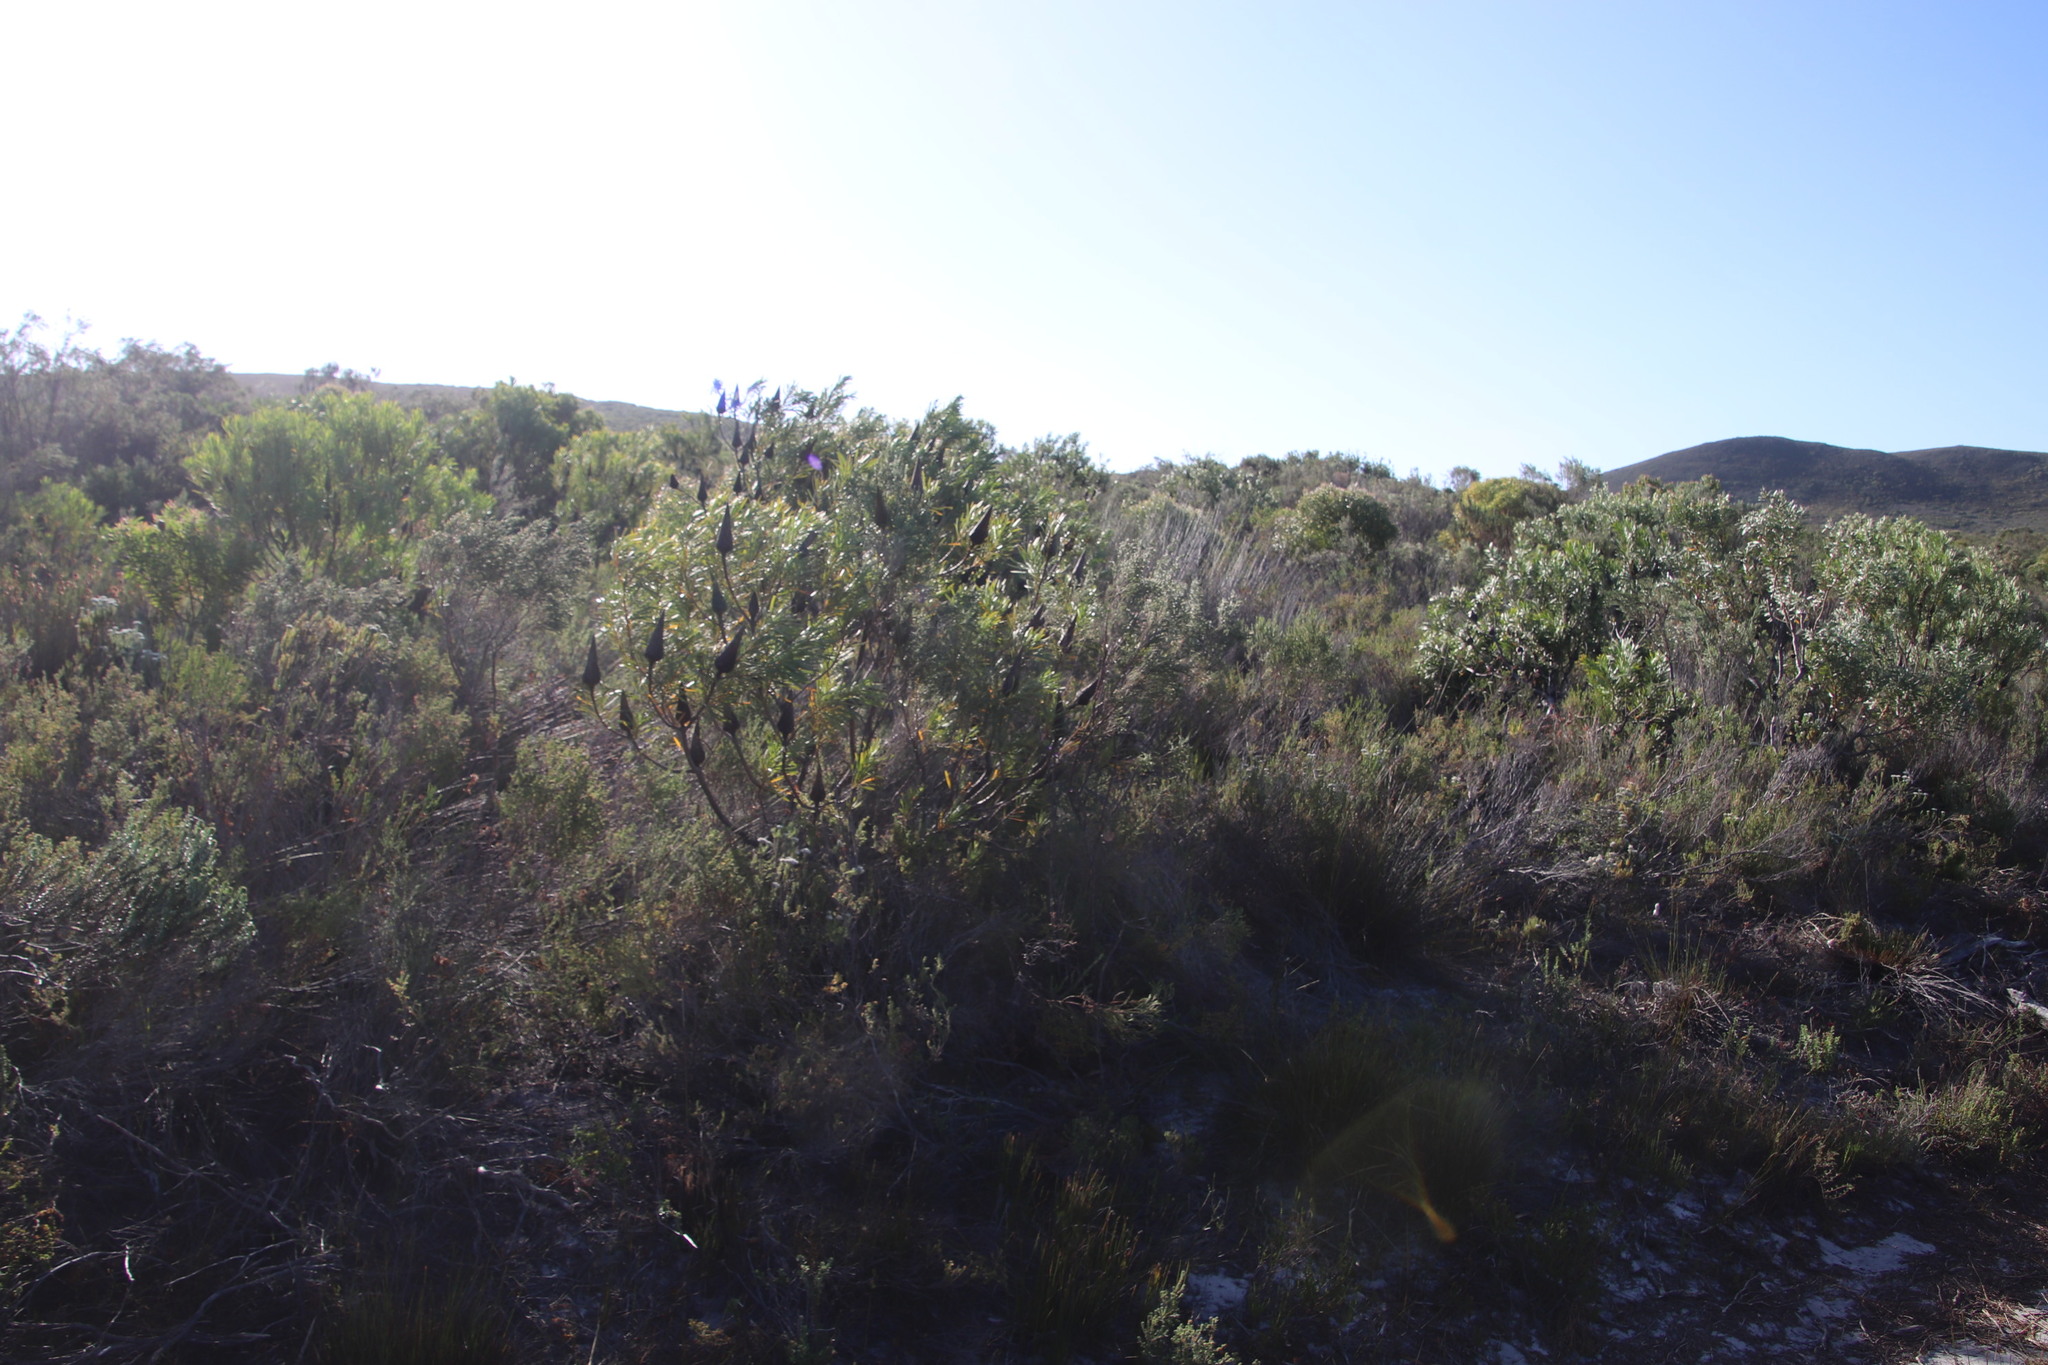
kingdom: Plantae
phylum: Tracheophyta
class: Magnoliopsida
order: Proteales
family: Proteaceae
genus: Protea
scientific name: Protea repens
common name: Sugarbush
